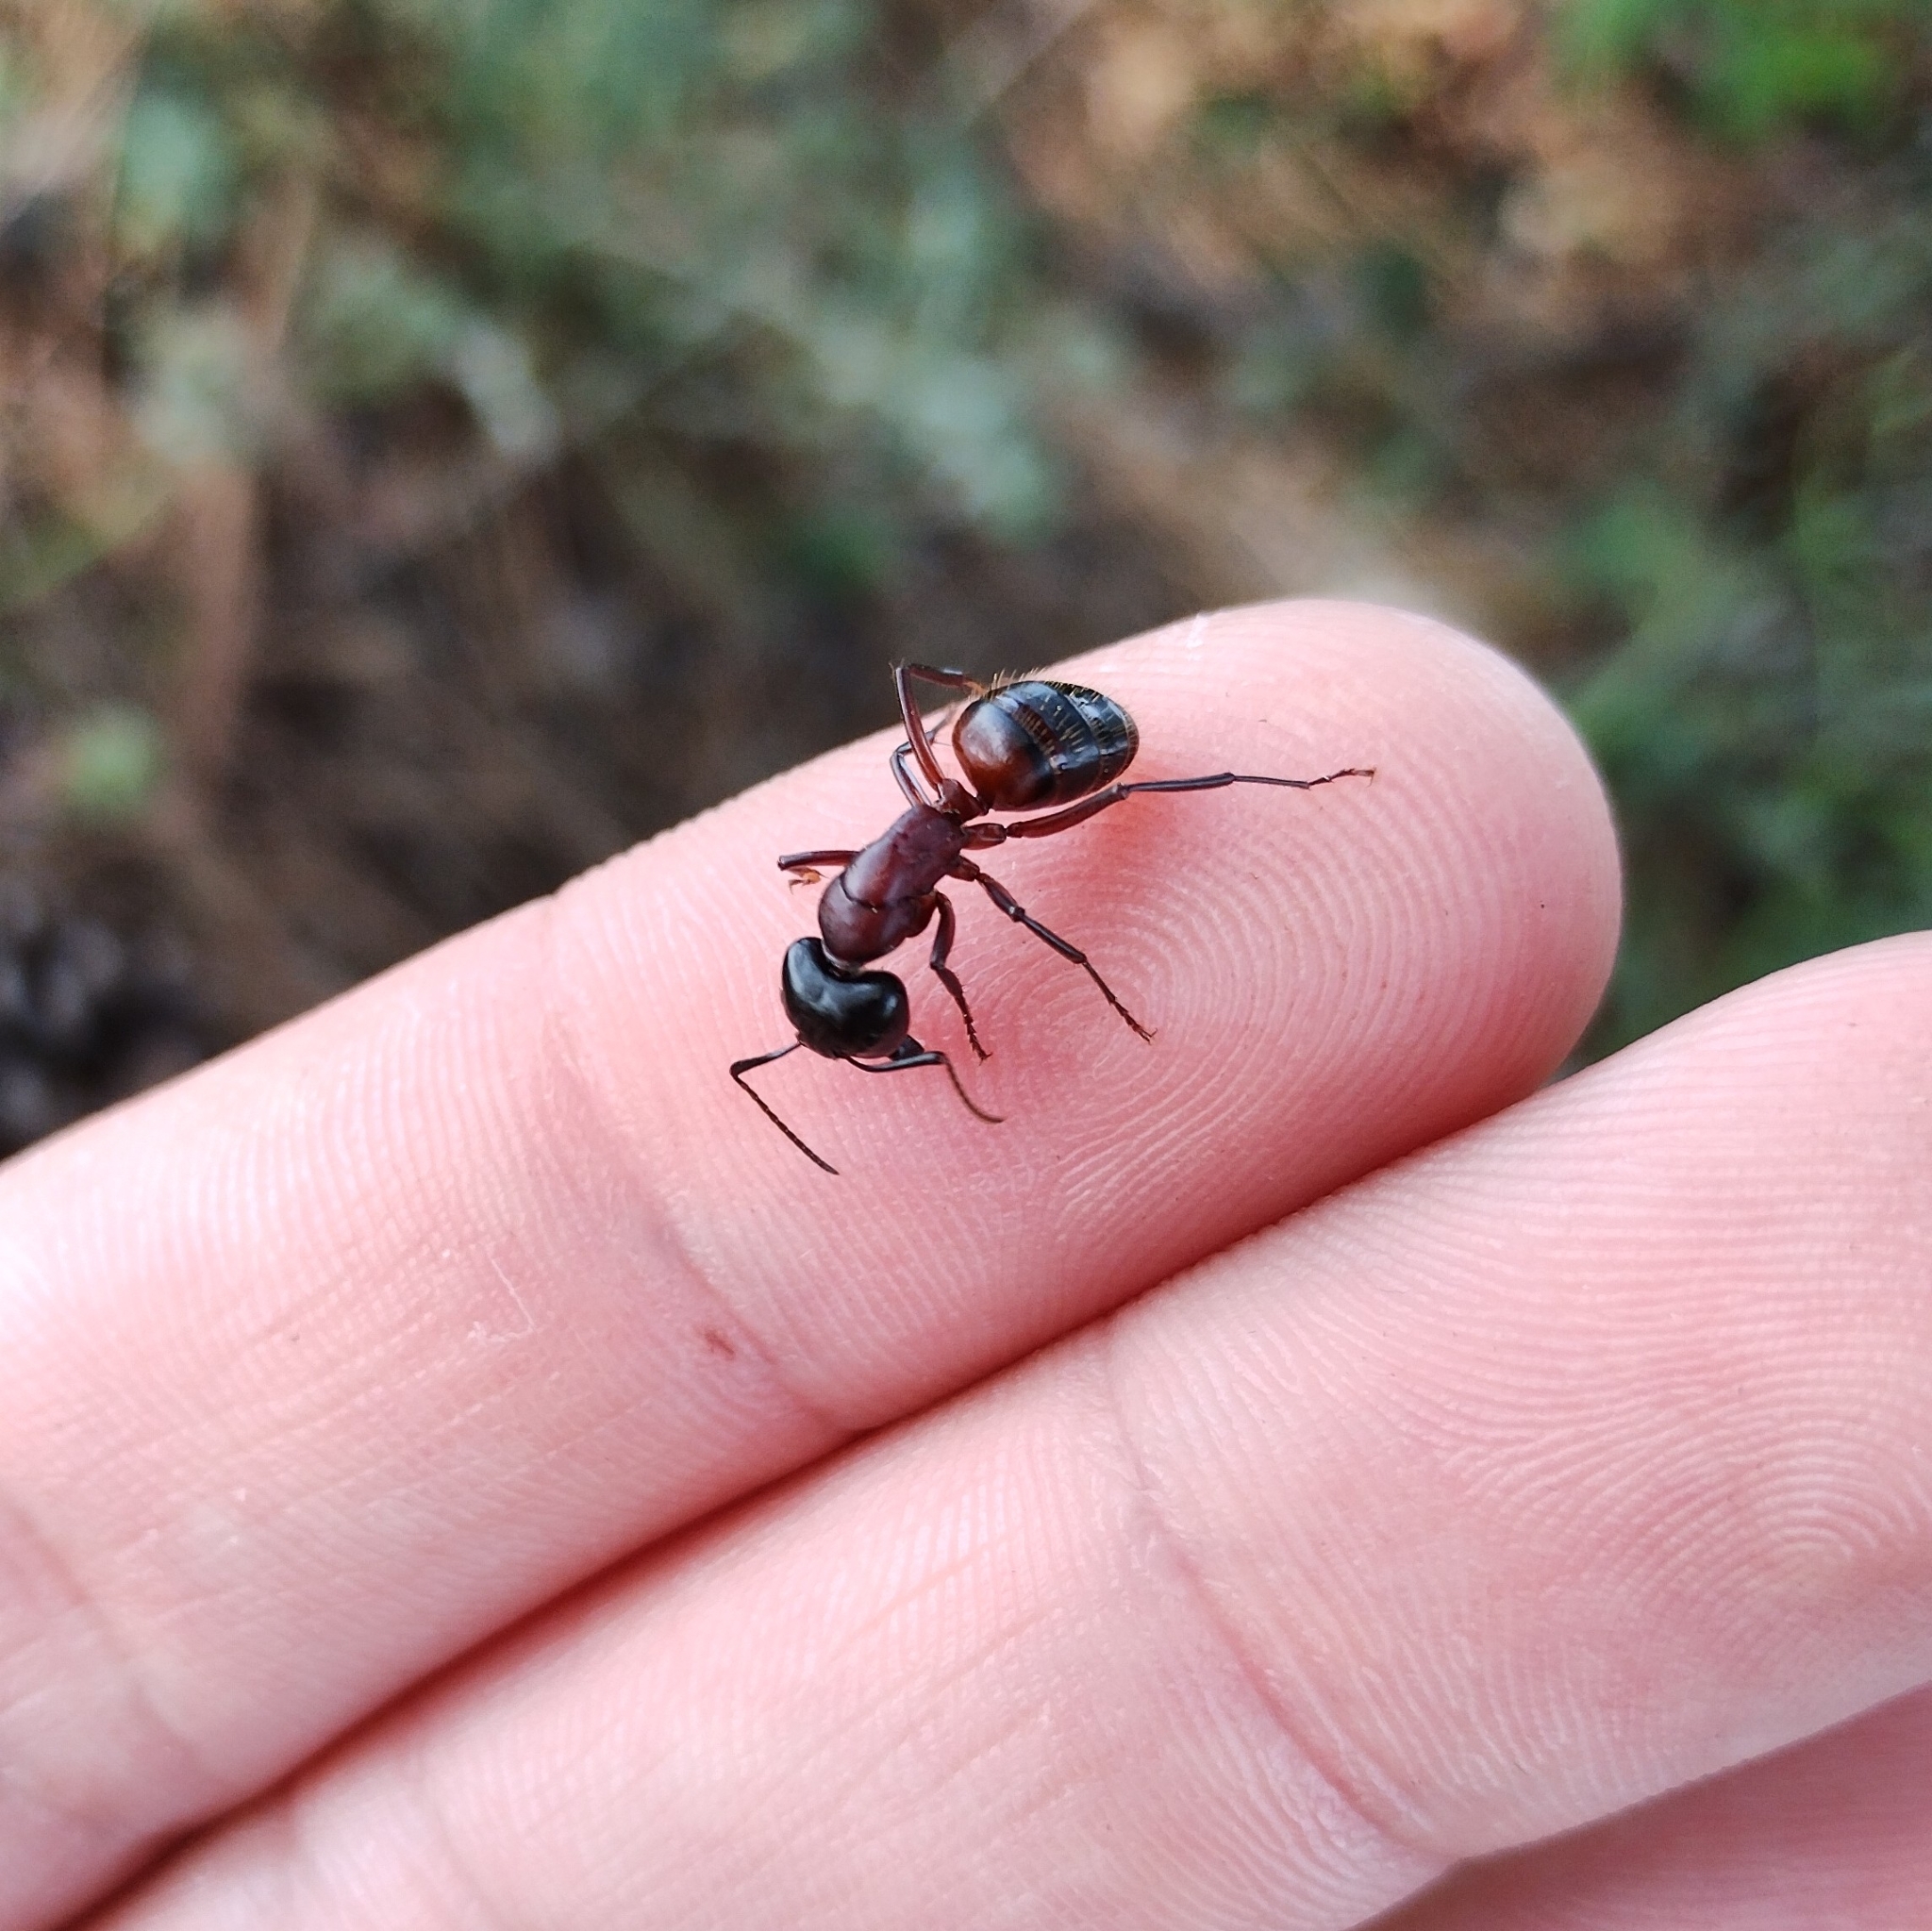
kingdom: Animalia
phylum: Arthropoda
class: Insecta
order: Hymenoptera
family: Formicidae
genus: Camponotus
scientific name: Camponotus ligniperdus
